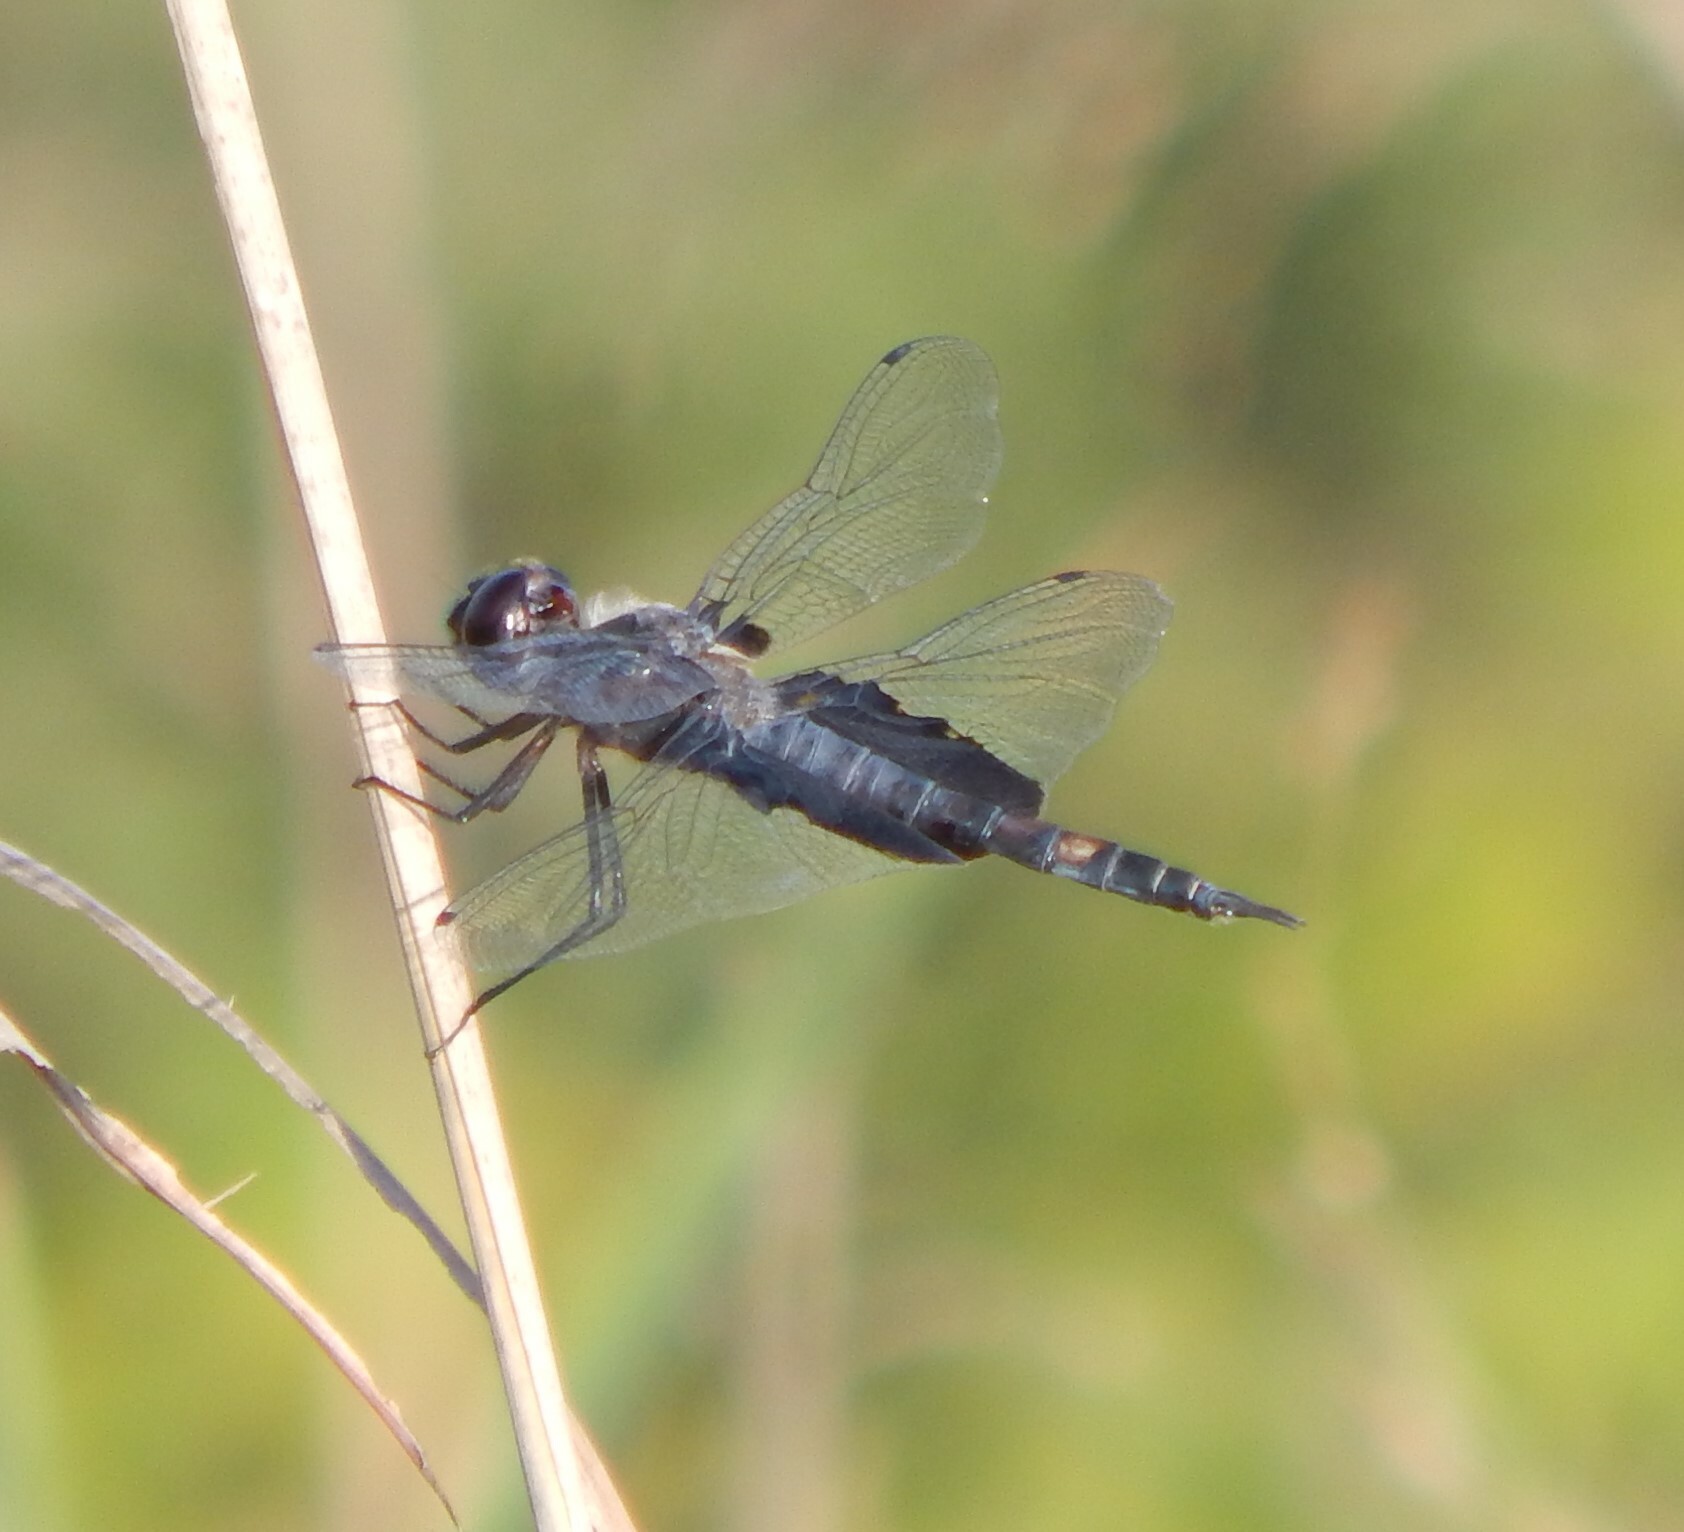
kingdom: Animalia
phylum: Arthropoda
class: Insecta
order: Odonata
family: Libellulidae
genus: Tramea
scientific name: Tramea lacerata
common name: Black saddlebags
